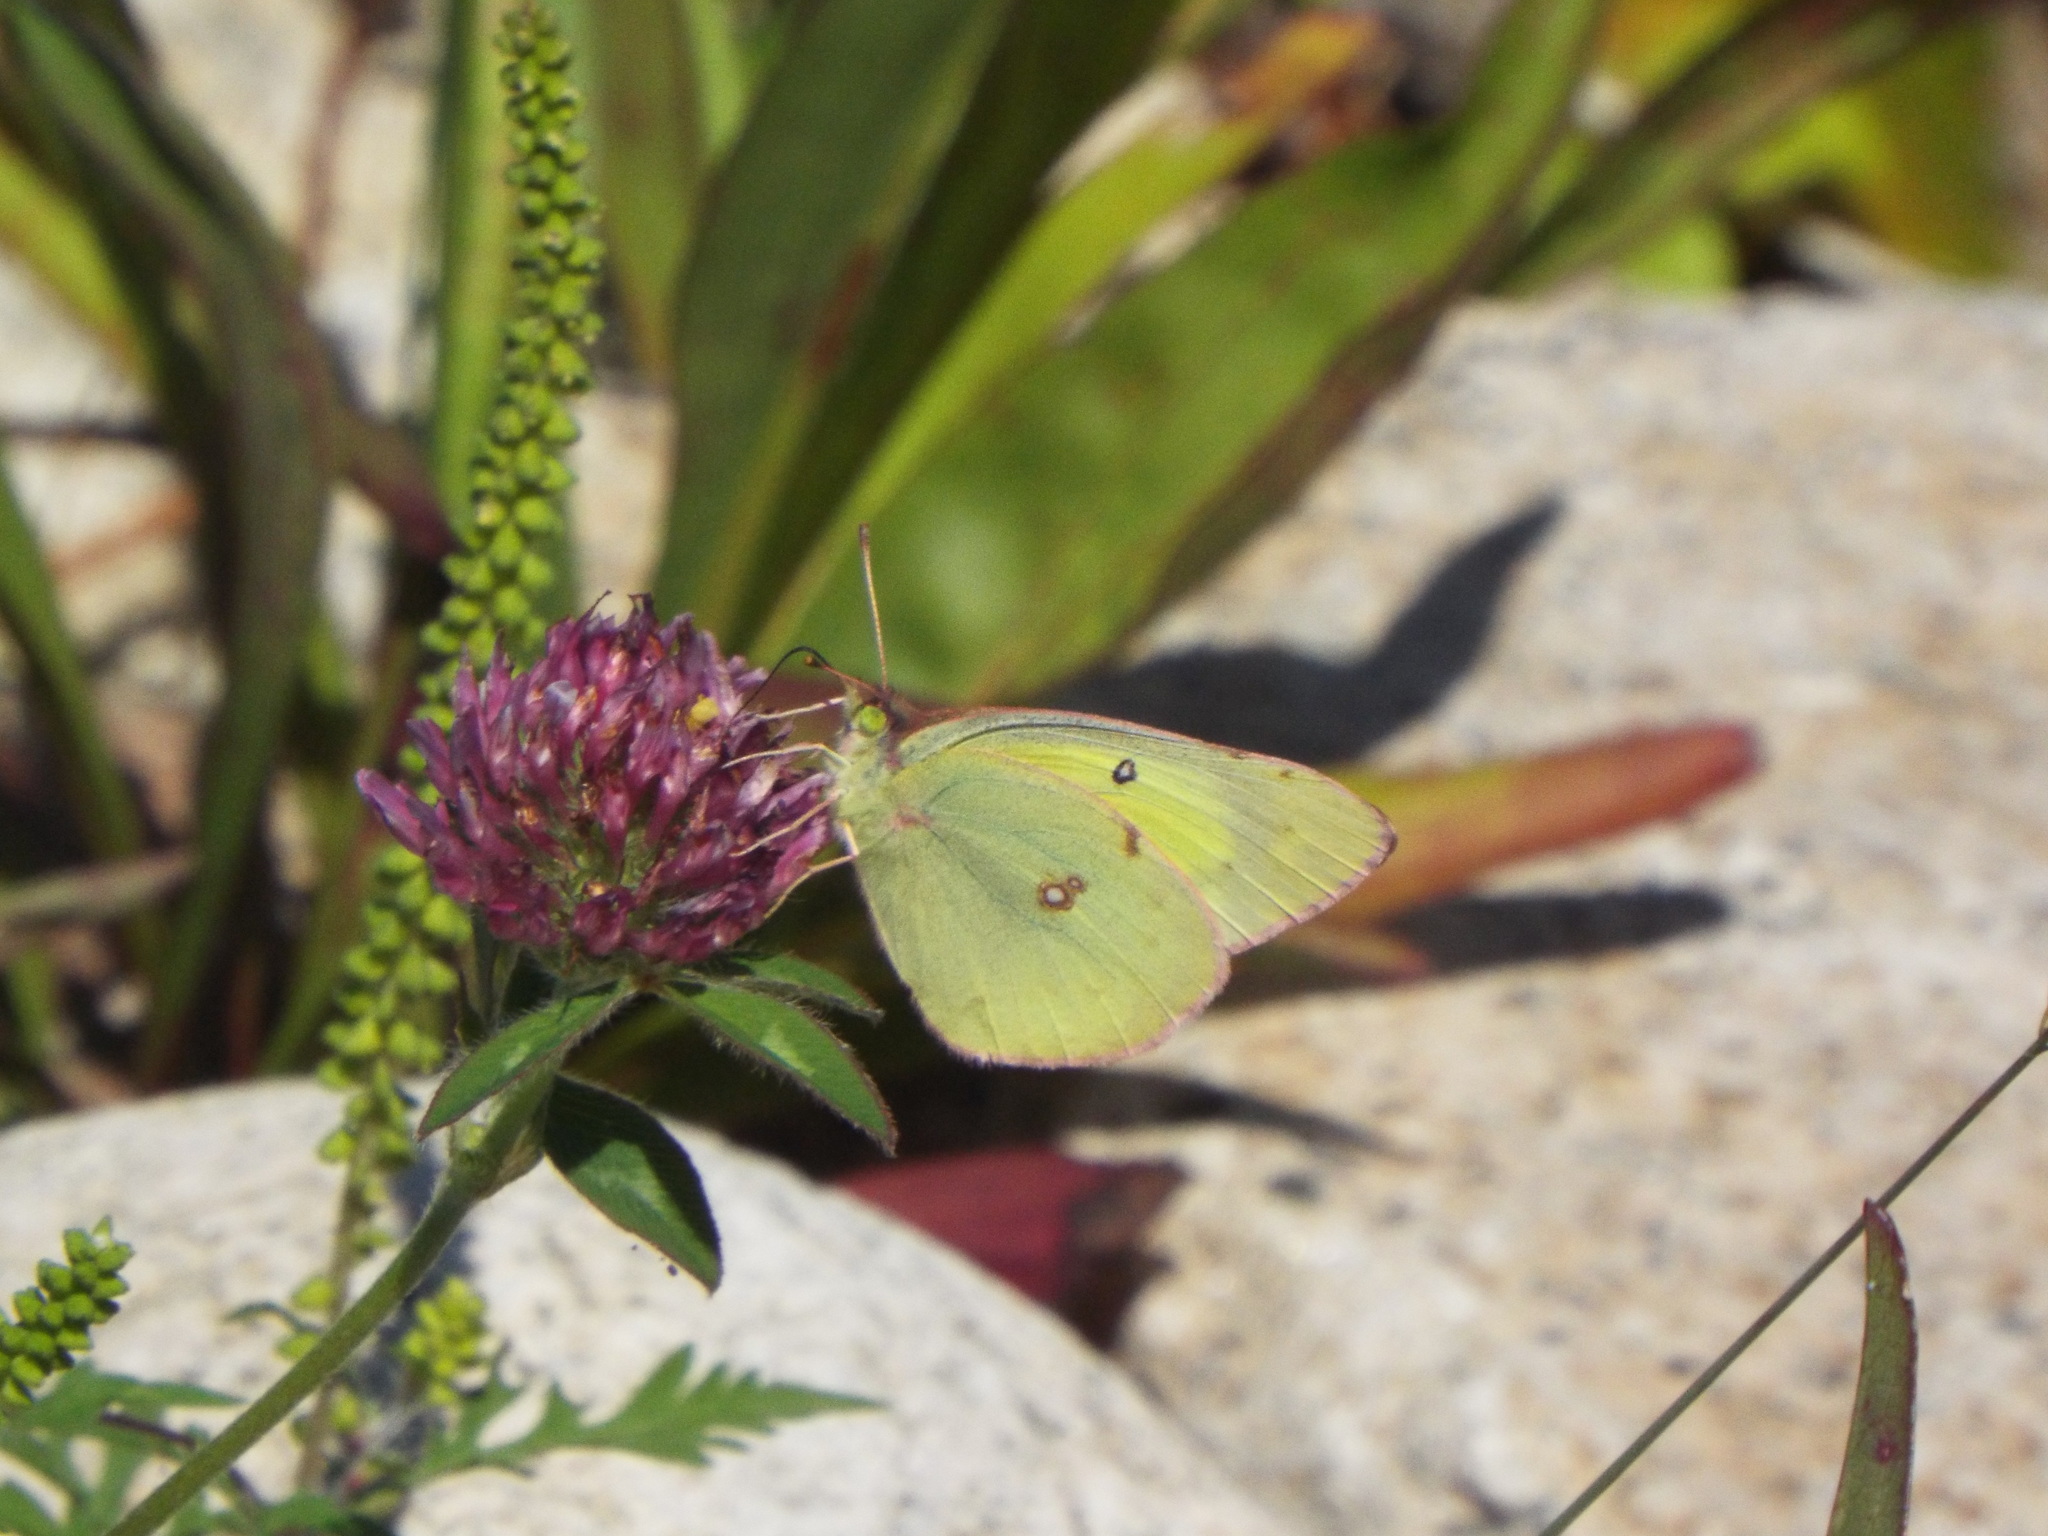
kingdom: Animalia
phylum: Arthropoda
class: Insecta
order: Lepidoptera
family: Pieridae
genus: Colias
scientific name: Colias philodice
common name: Clouded sulphur
